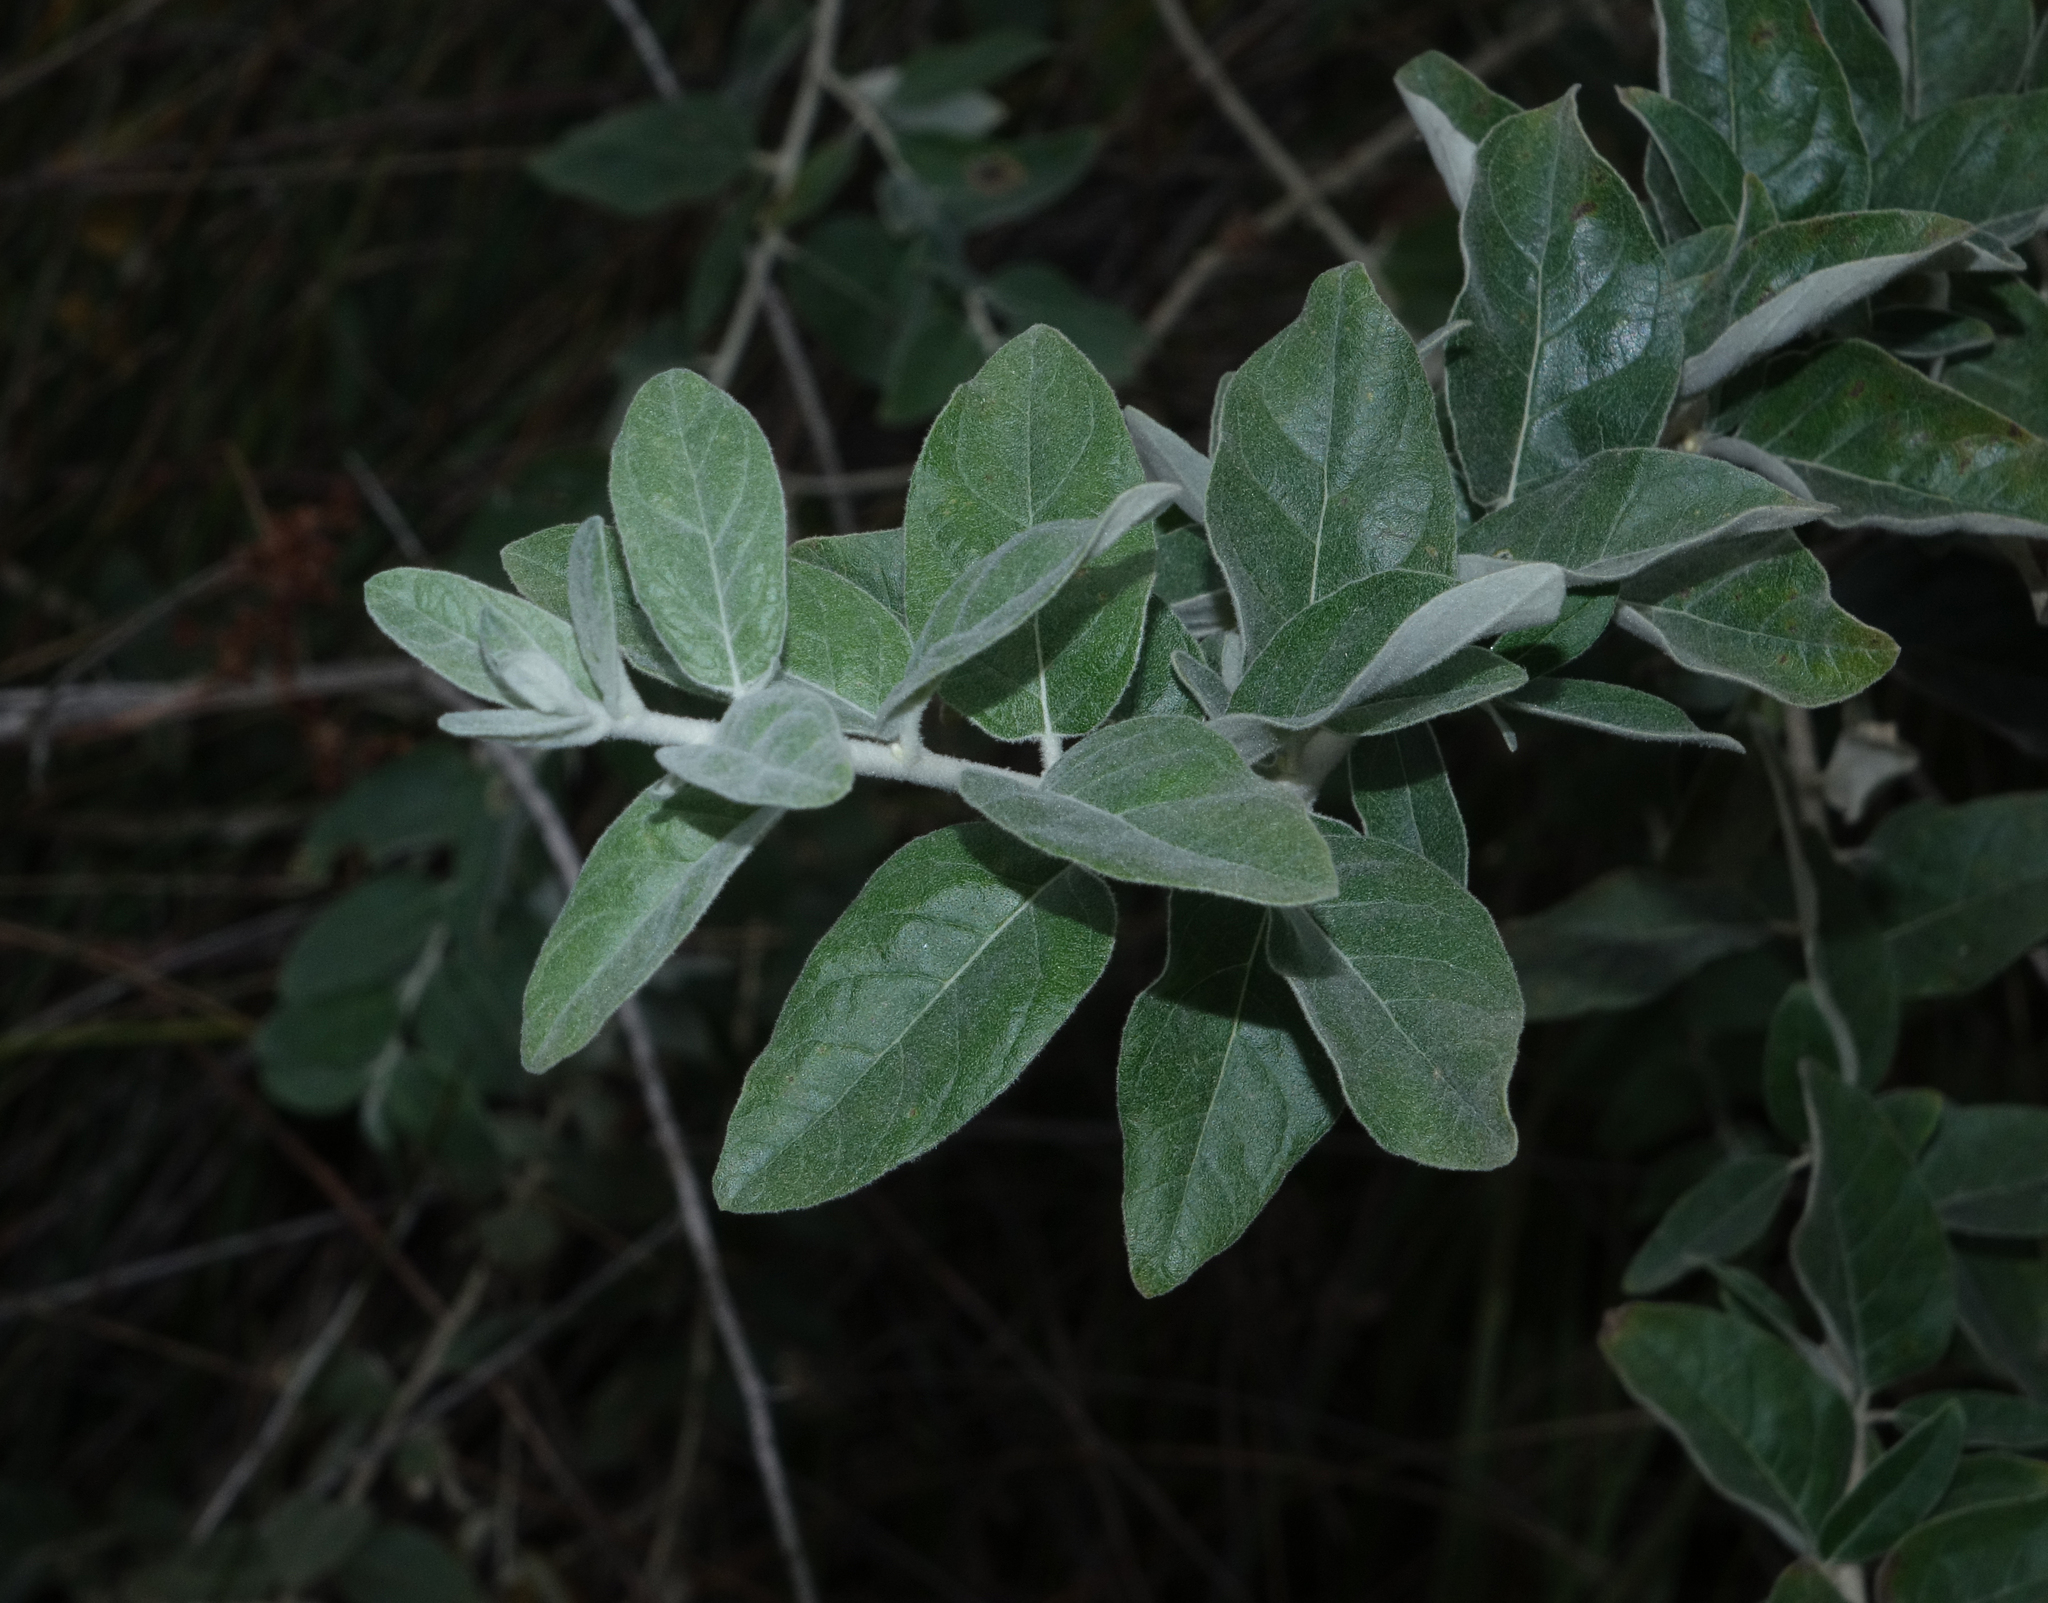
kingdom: Plantae
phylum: Tracheophyta
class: Magnoliopsida
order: Rosales
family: Elaeagnaceae
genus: Elaeagnus
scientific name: Elaeagnus angustifolia
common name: Russian olive
